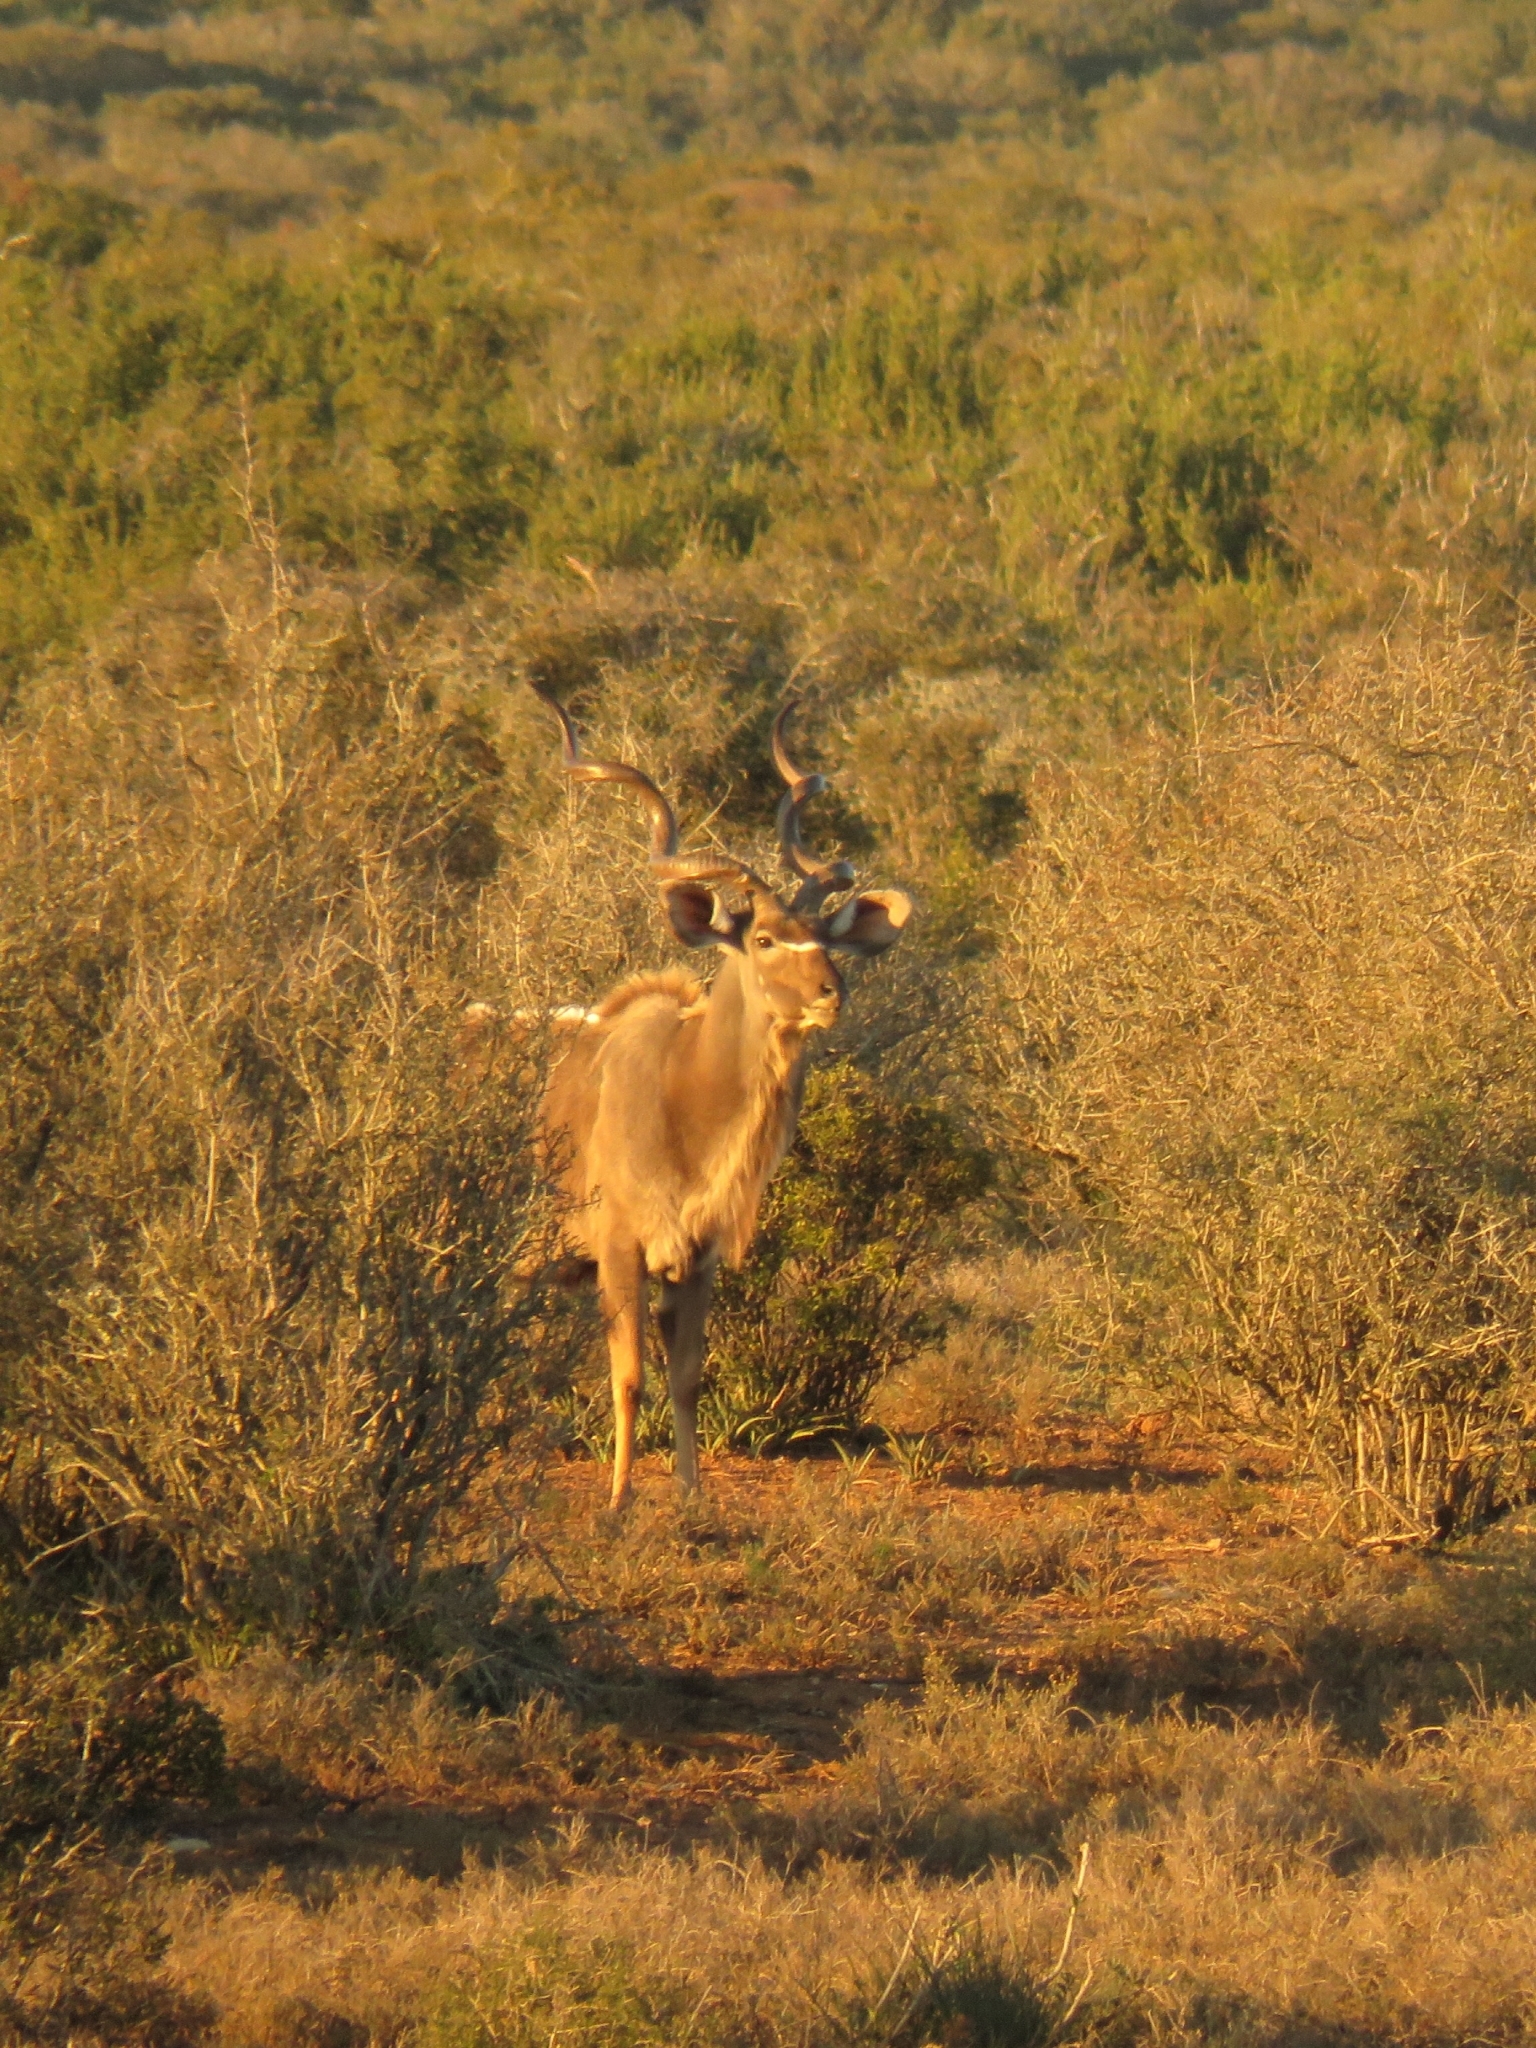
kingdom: Animalia
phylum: Chordata
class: Mammalia
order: Artiodactyla
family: Bovidae
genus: Tragelaphus
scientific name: Tragelaphus strepsiceros
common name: Greater kudu
